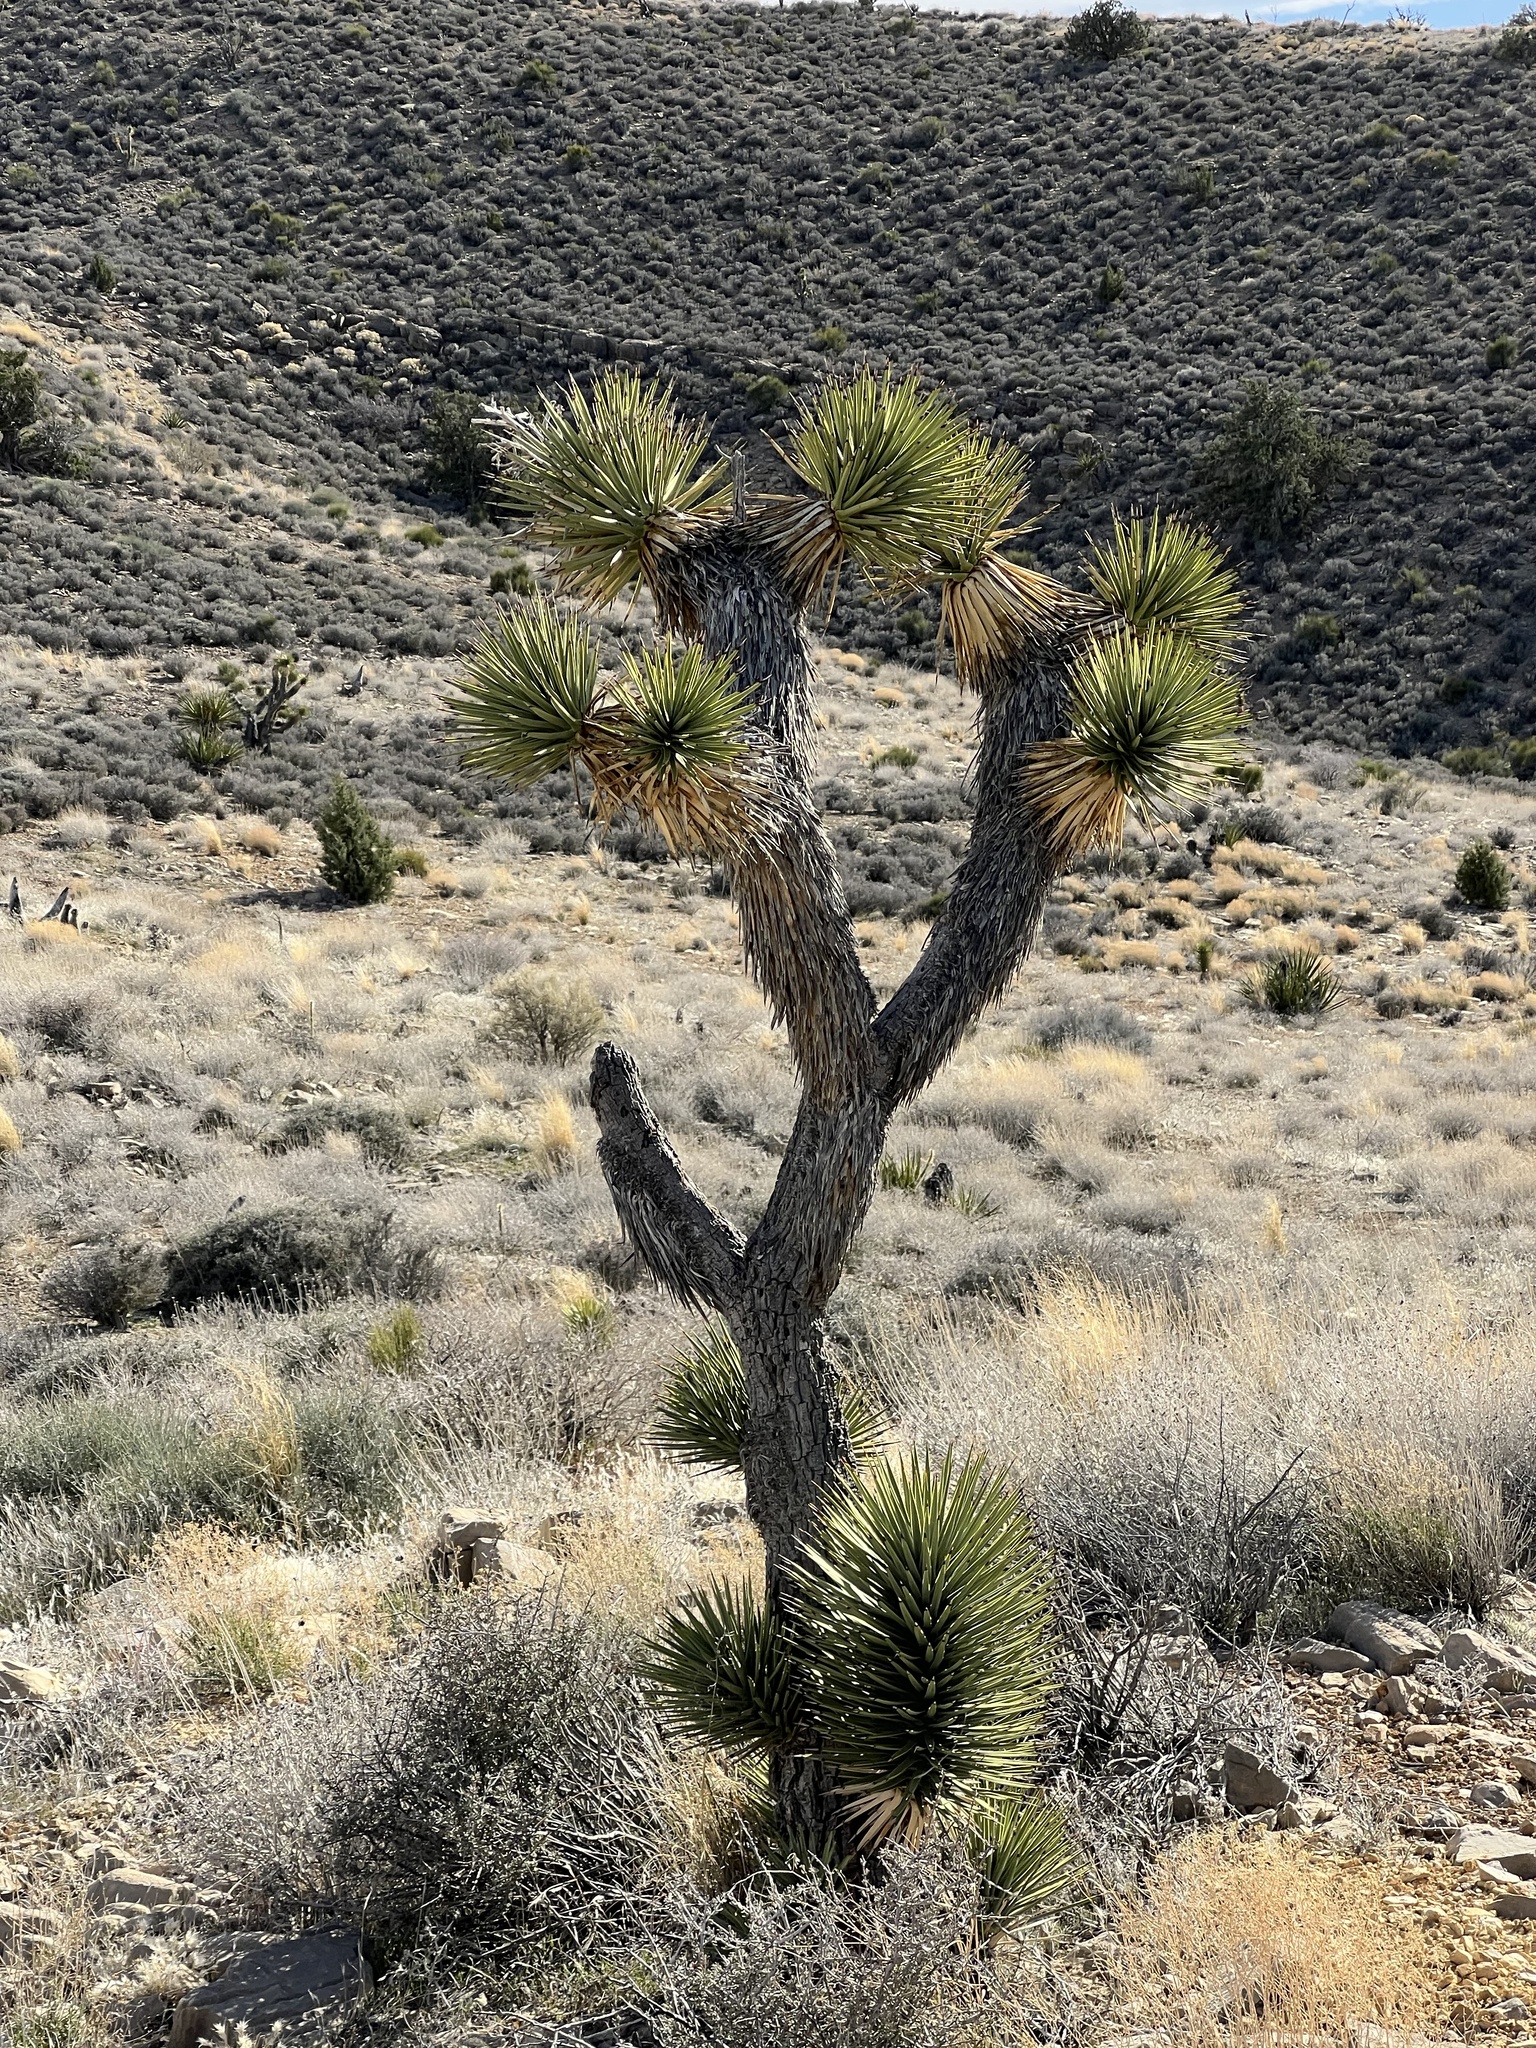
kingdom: Plantae
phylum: Tracheophyta
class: Liliopsida
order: Asparagales
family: Asparagaceae
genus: Yucca
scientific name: Yucca brevifolia
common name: Joshua tree
